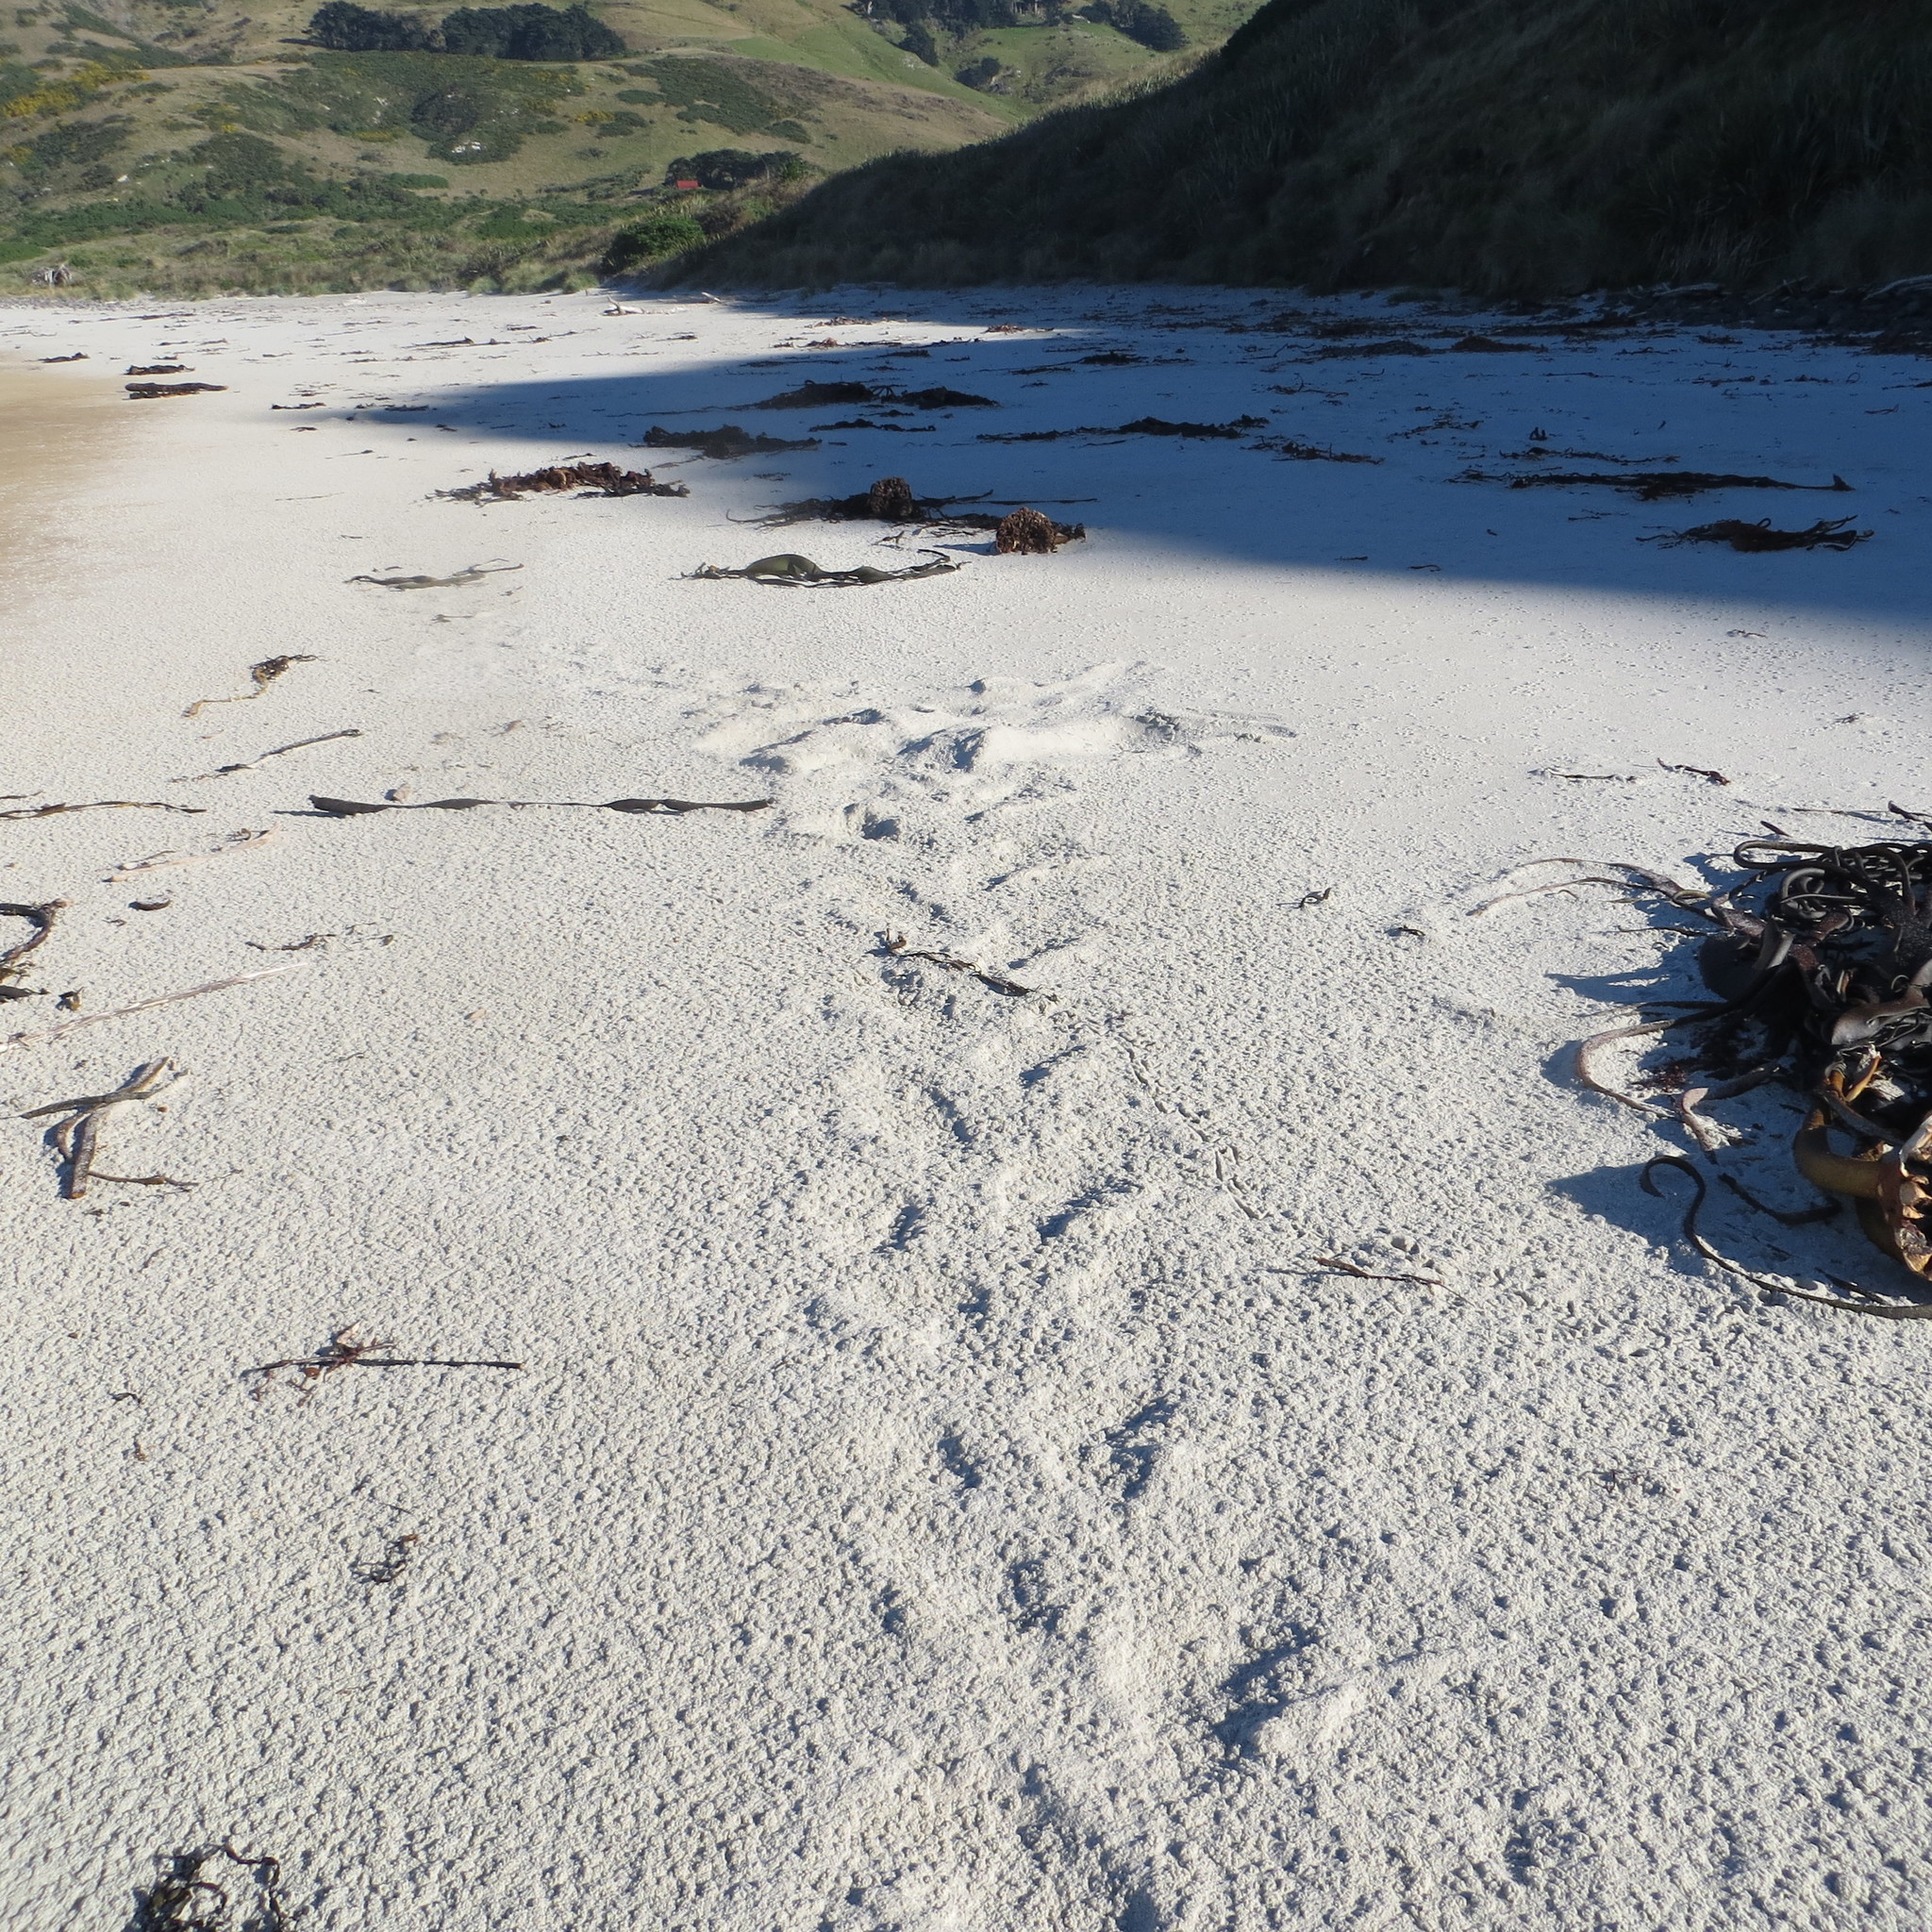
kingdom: Animalia
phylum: Chordata
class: Mammalia
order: Carnivora
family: Otariidae
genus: Phocarctos
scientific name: Phocarctos hookeri
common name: New zealand sea lion
